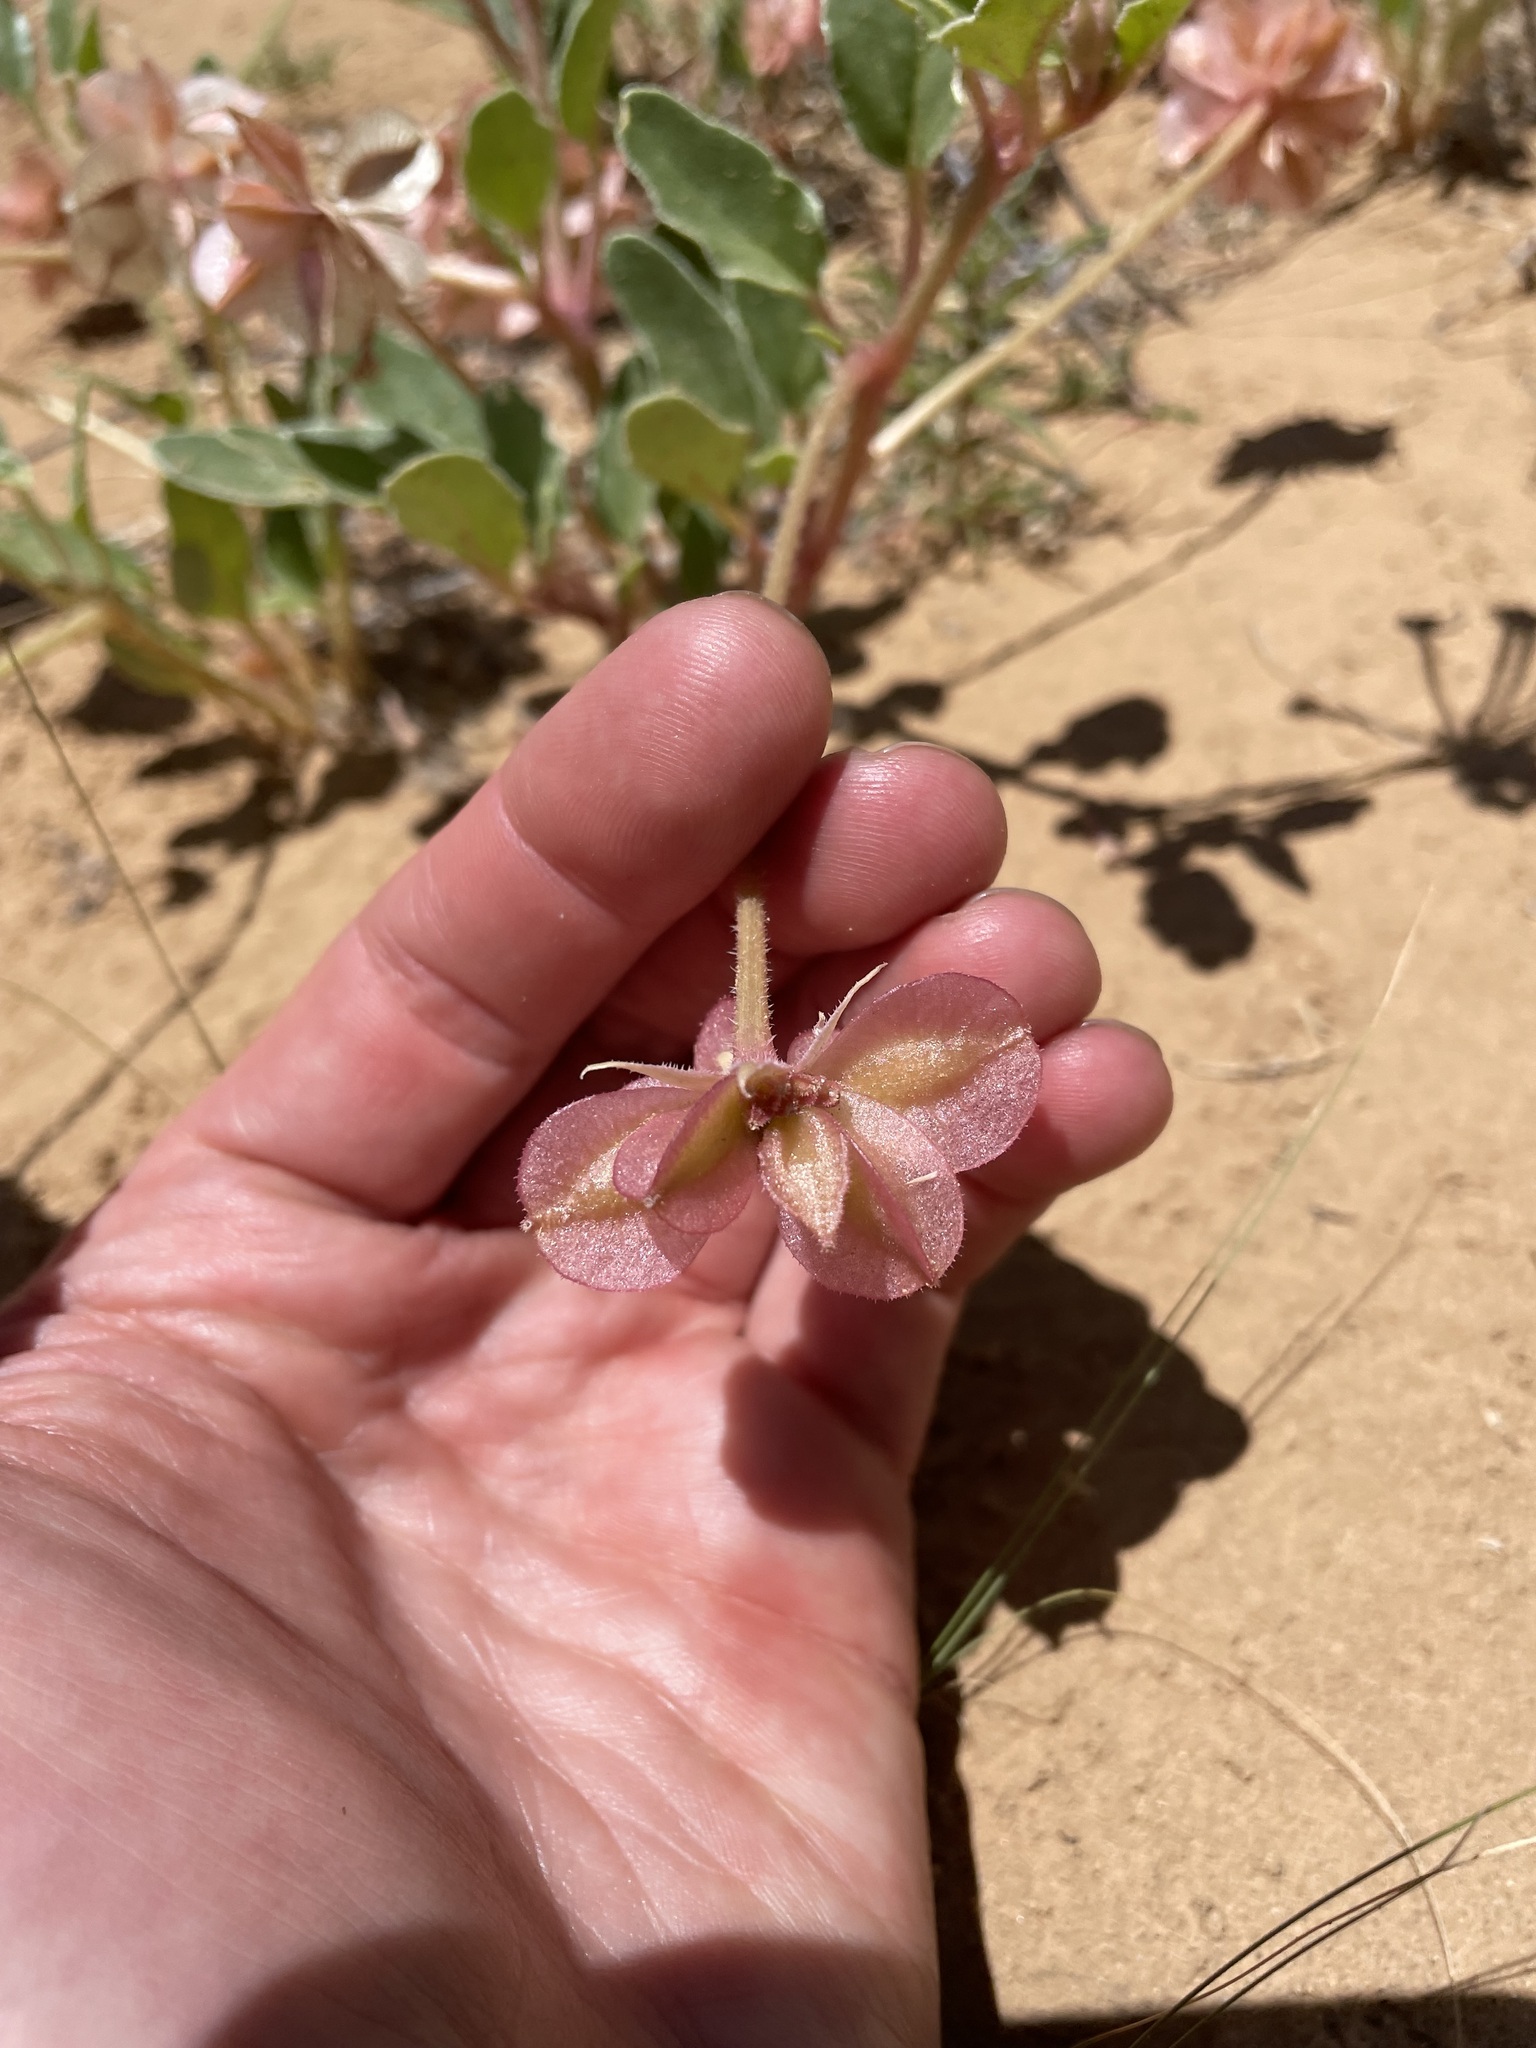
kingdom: Plantae
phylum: Tracheophyta
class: Magnoliopsida
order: Caryophyllales
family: Nyctaginaceae
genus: Tripterocalyx
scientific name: Tripterocalyx carneus
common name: Winged sandpuffs
